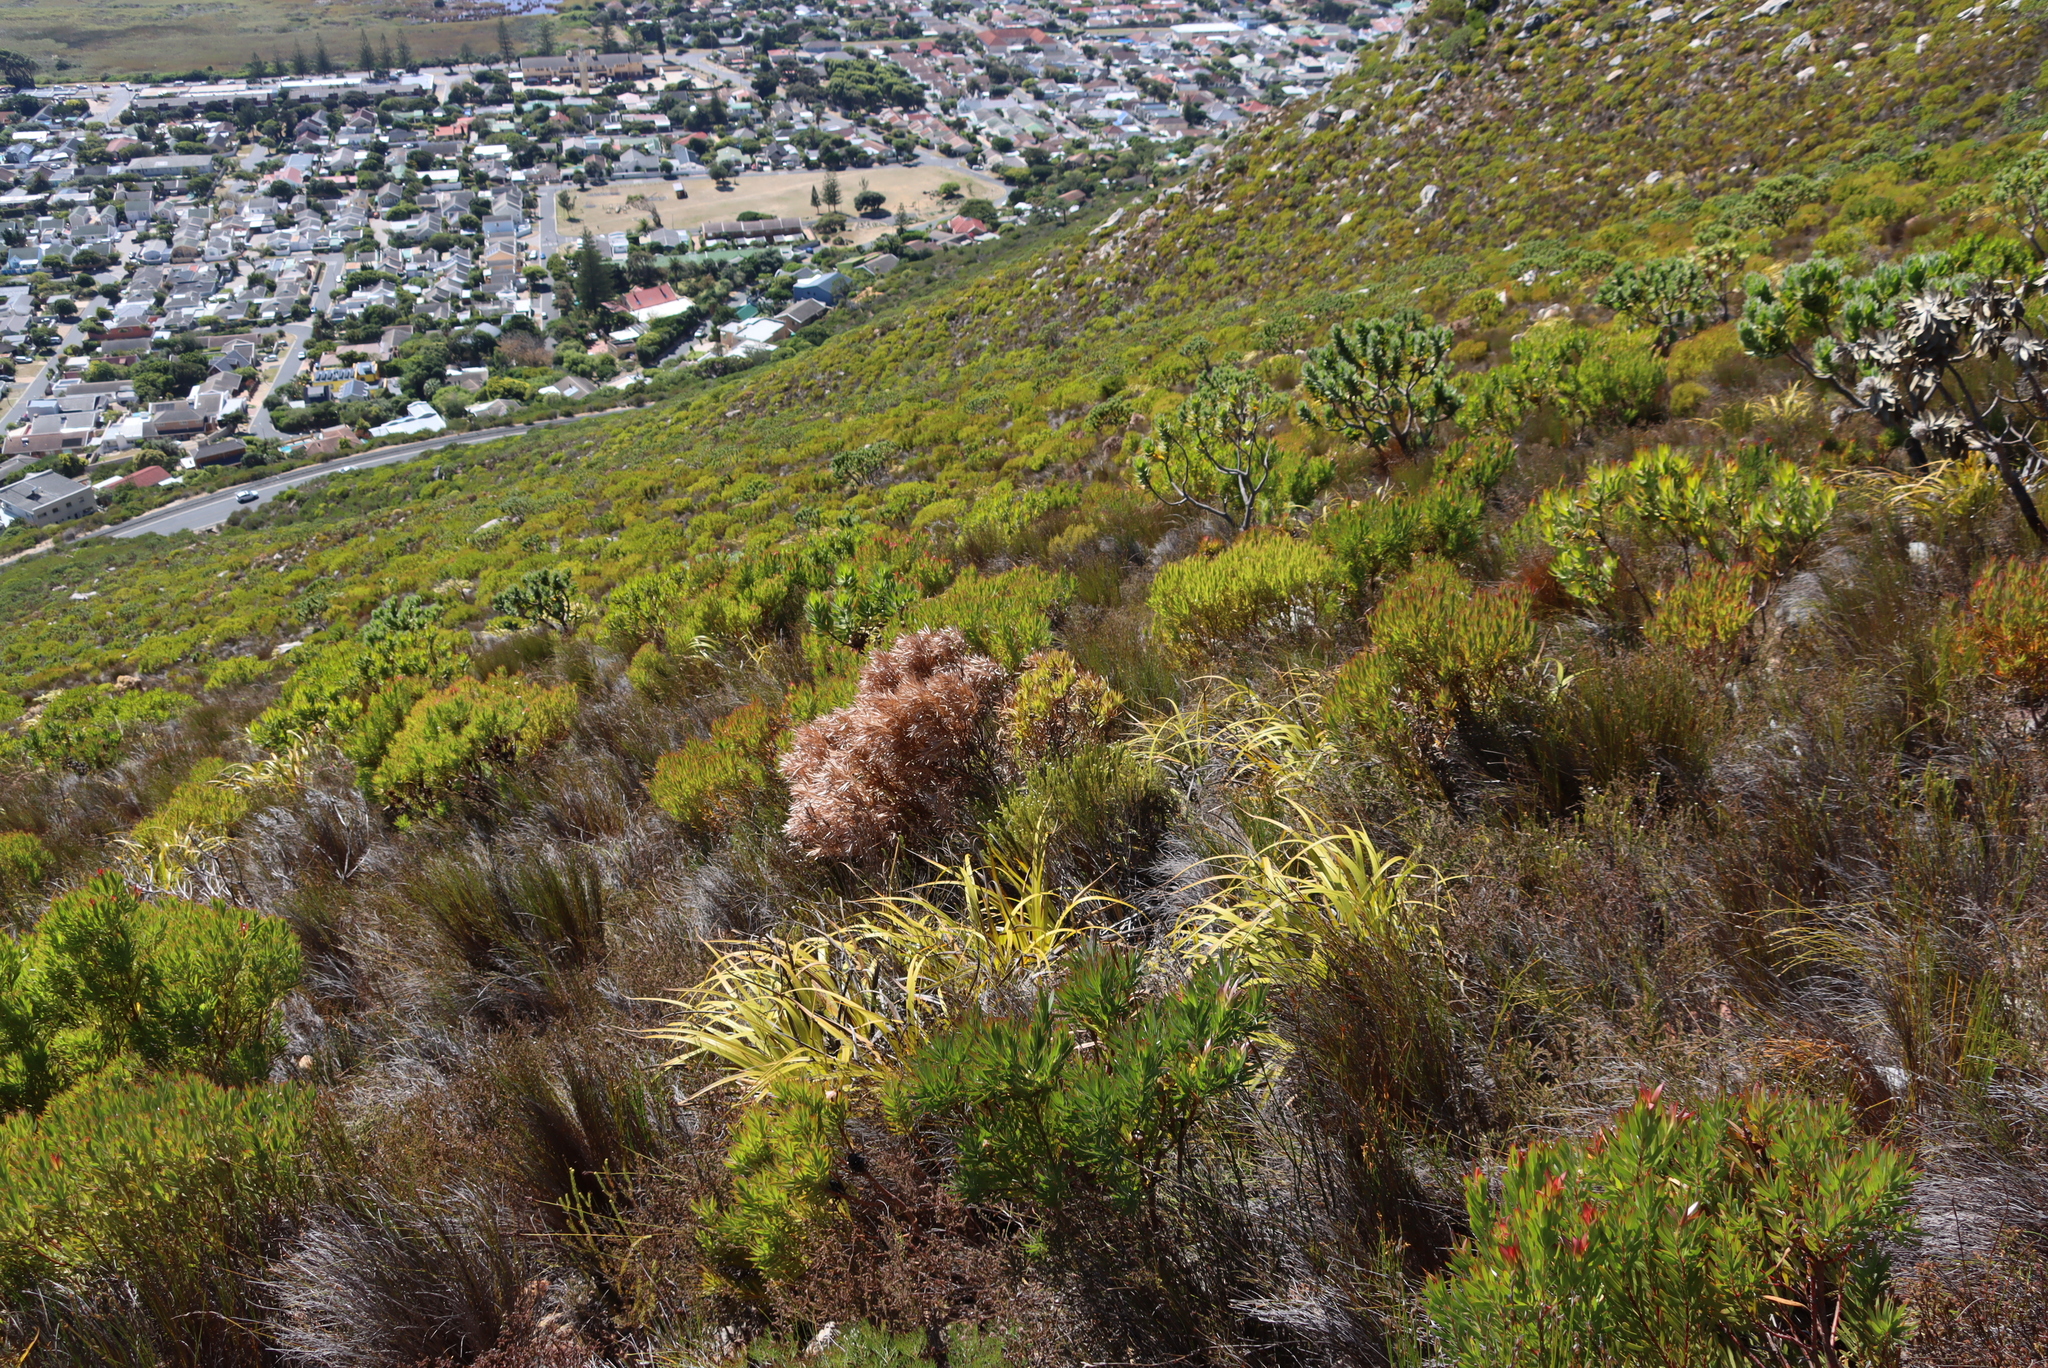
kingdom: Plantae
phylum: Tracheophyta
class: Magnoliopsida
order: Proteales
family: Proteaceae
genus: Leucadendron
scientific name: Leucadendron xanthoconus
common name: Sickle-leaf conebush
